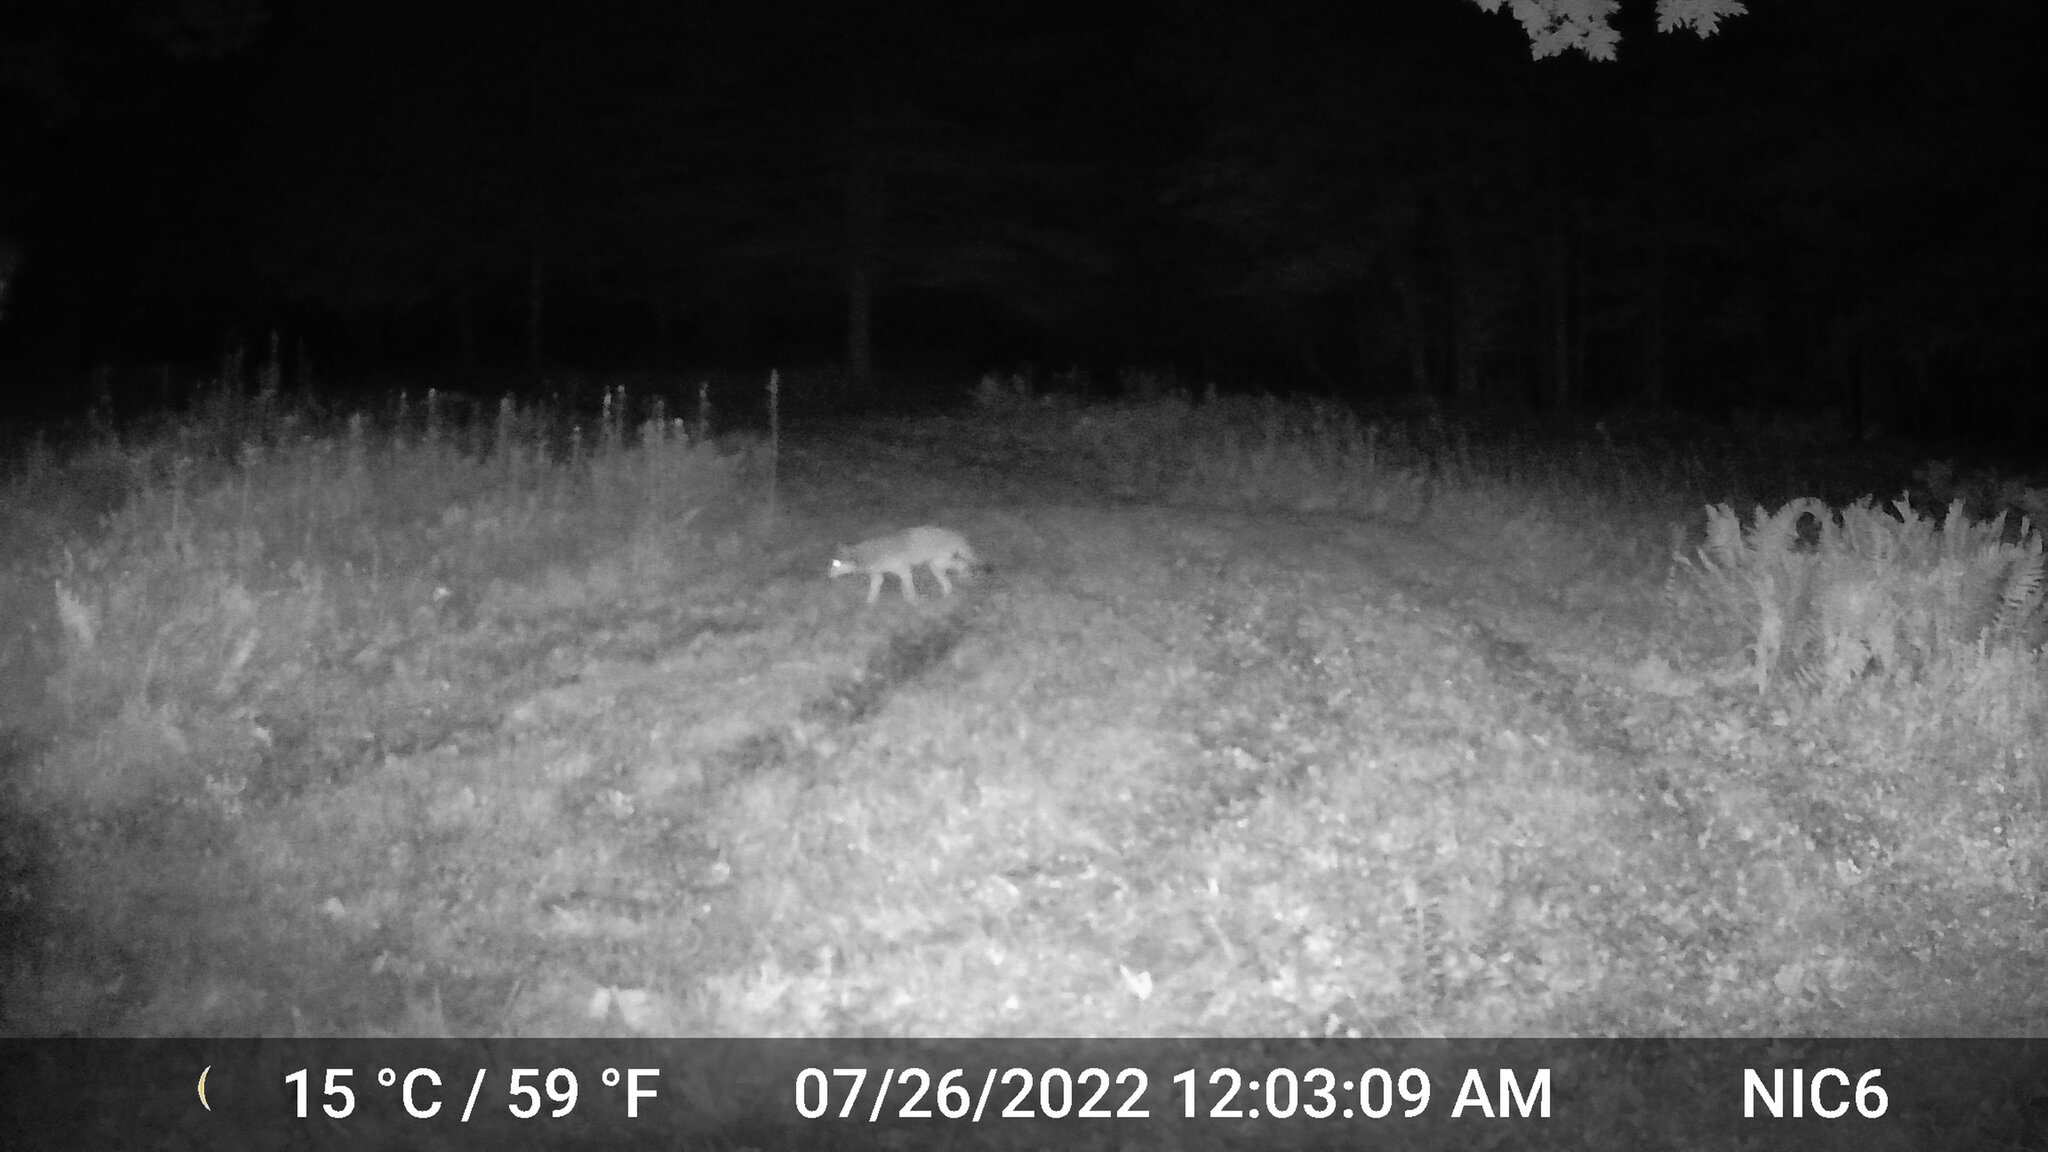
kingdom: Animalia
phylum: Chordata
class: Mammalia
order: Carnivora
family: Canidae
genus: Canis
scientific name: Canis latrans
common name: Coyote
